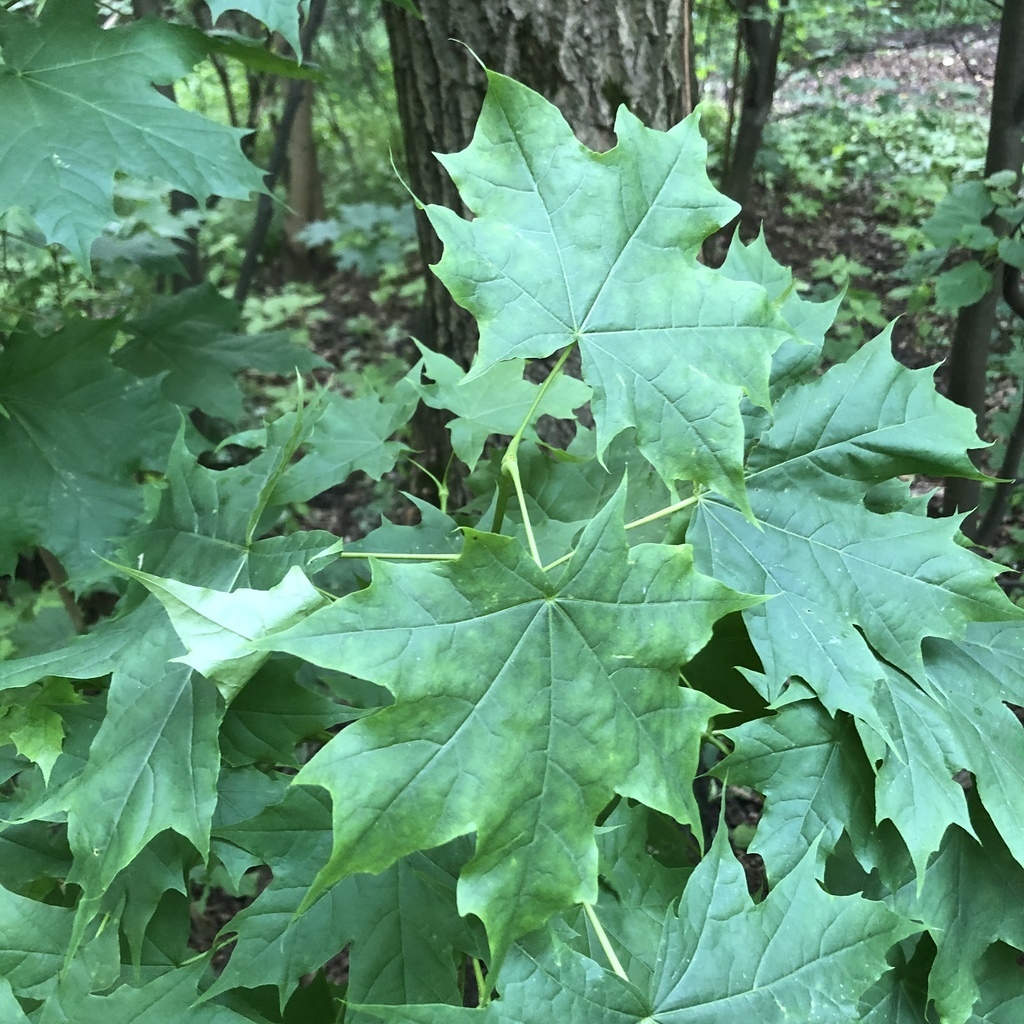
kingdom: Plantae
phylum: Tracheophyta
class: Magnoliopsida
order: Sapindales
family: Sapindaceae
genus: Acer
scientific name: Acer platanoides
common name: Norway maple
